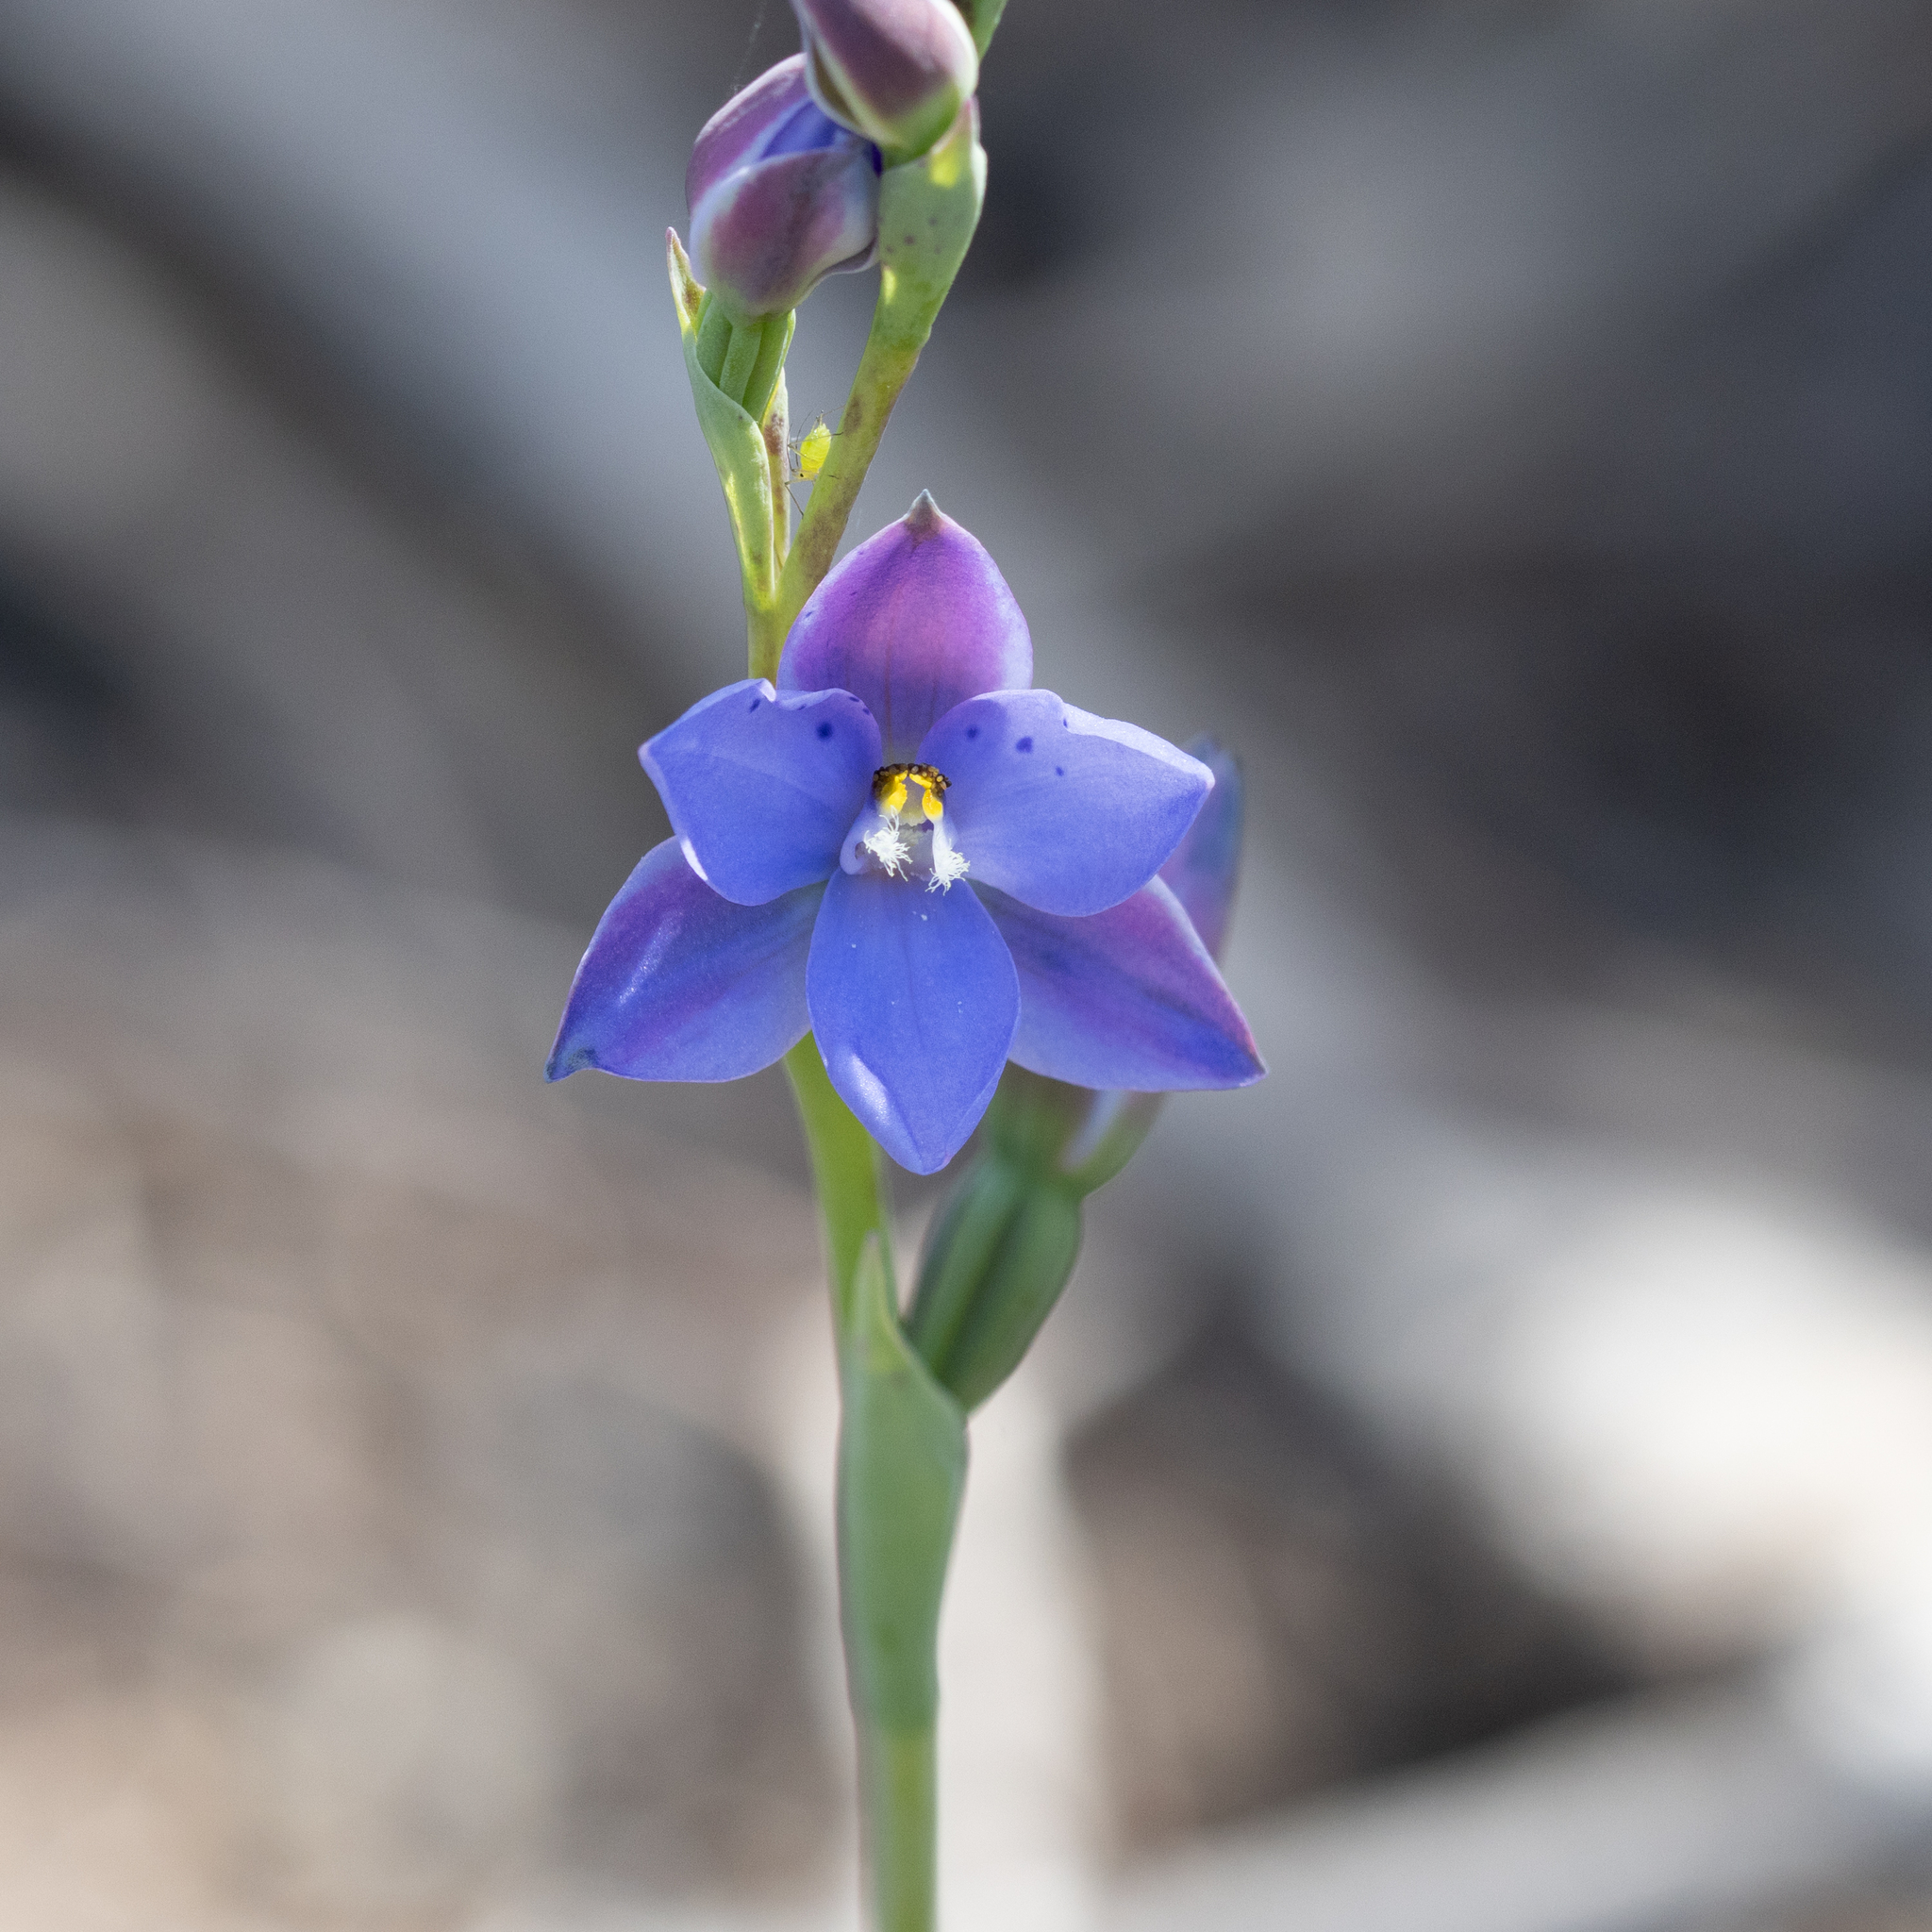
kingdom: Plantae
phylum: Tracheophyta
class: Liliopsida
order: Asparagales
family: Orchidaceae
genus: Thelymitra
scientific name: Thelymitra ixioides
